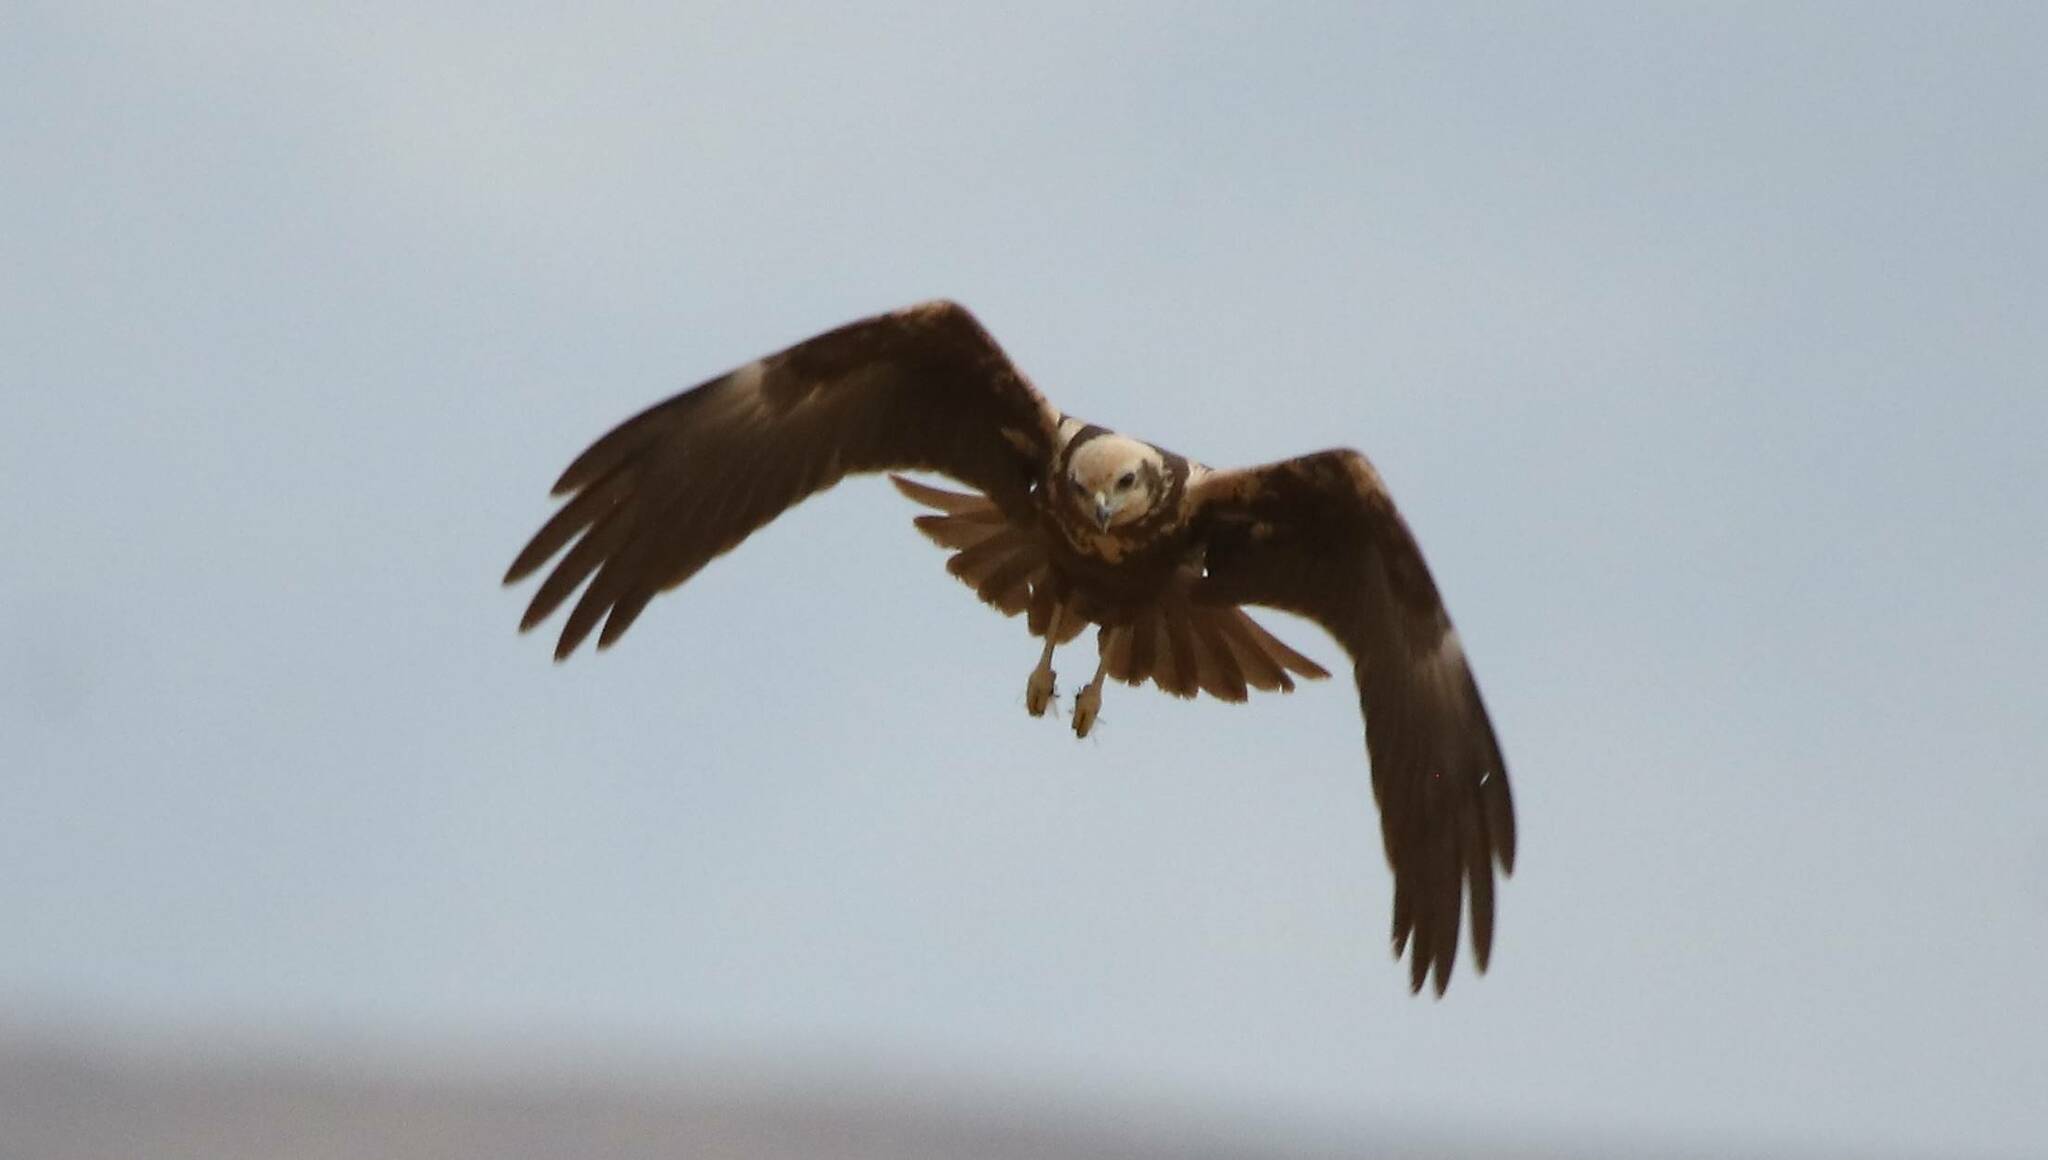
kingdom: Animalia
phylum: Chordata
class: Aves
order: Accipitriformes
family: Accipitridae
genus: Circus
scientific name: Circus aeruginosus
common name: Western marsh harrier
